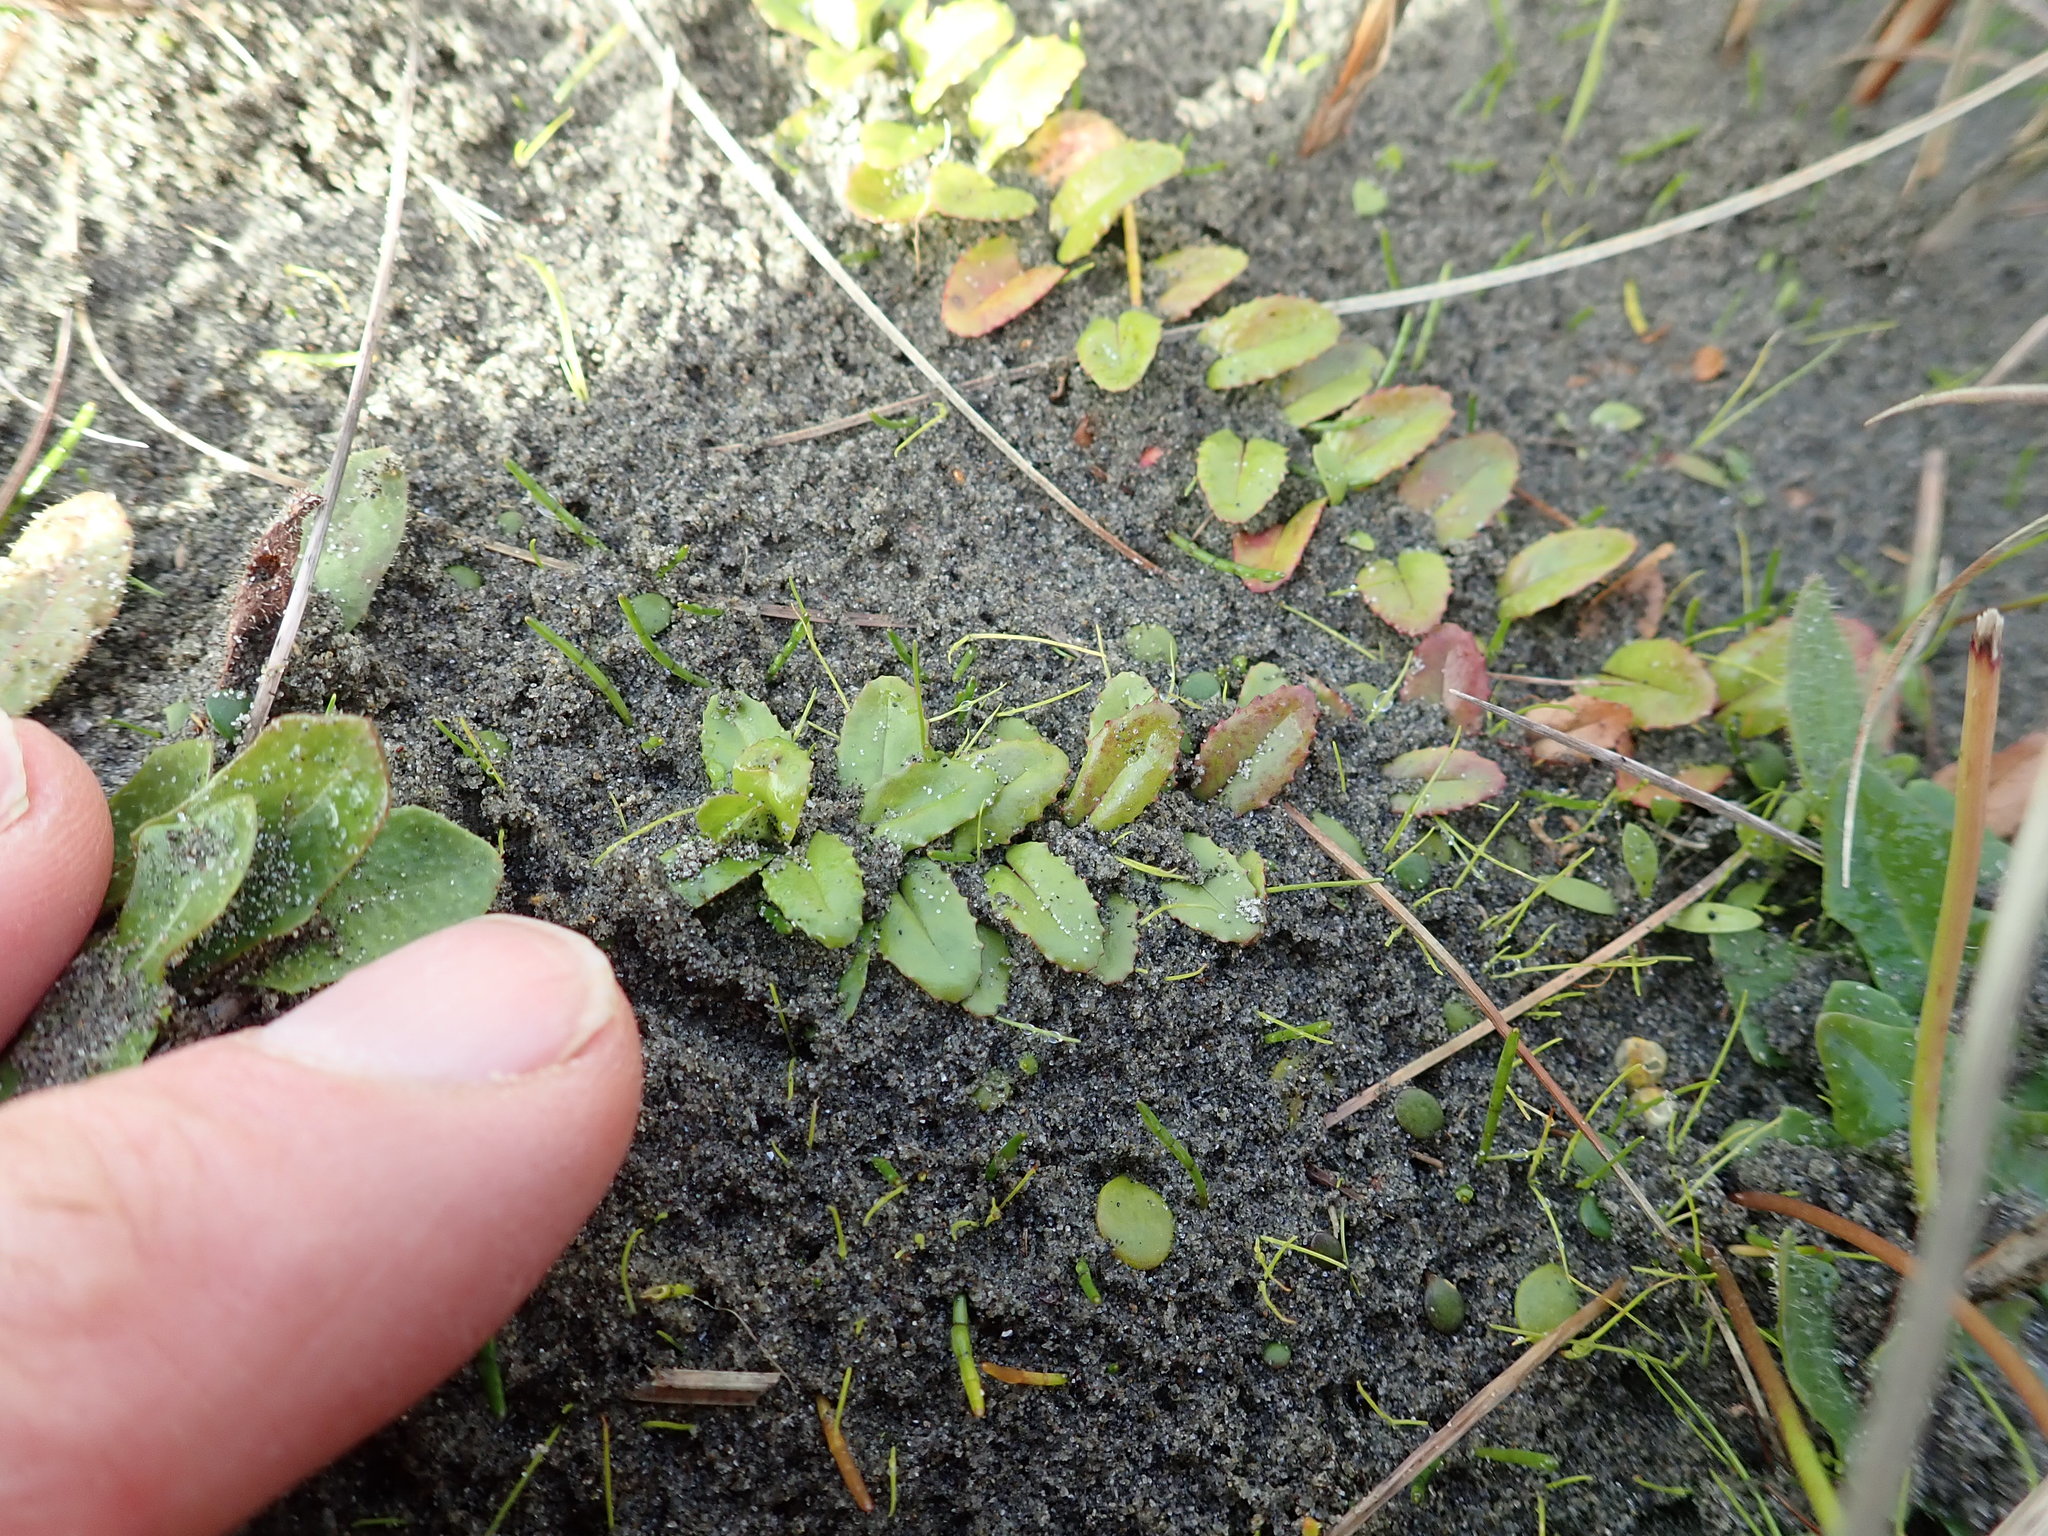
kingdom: Plantae
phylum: Tracheophyta
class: Magnoliopsida
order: Myrtales
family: Onagraceae
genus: Epilobium
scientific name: Epilobium billardiereanum
